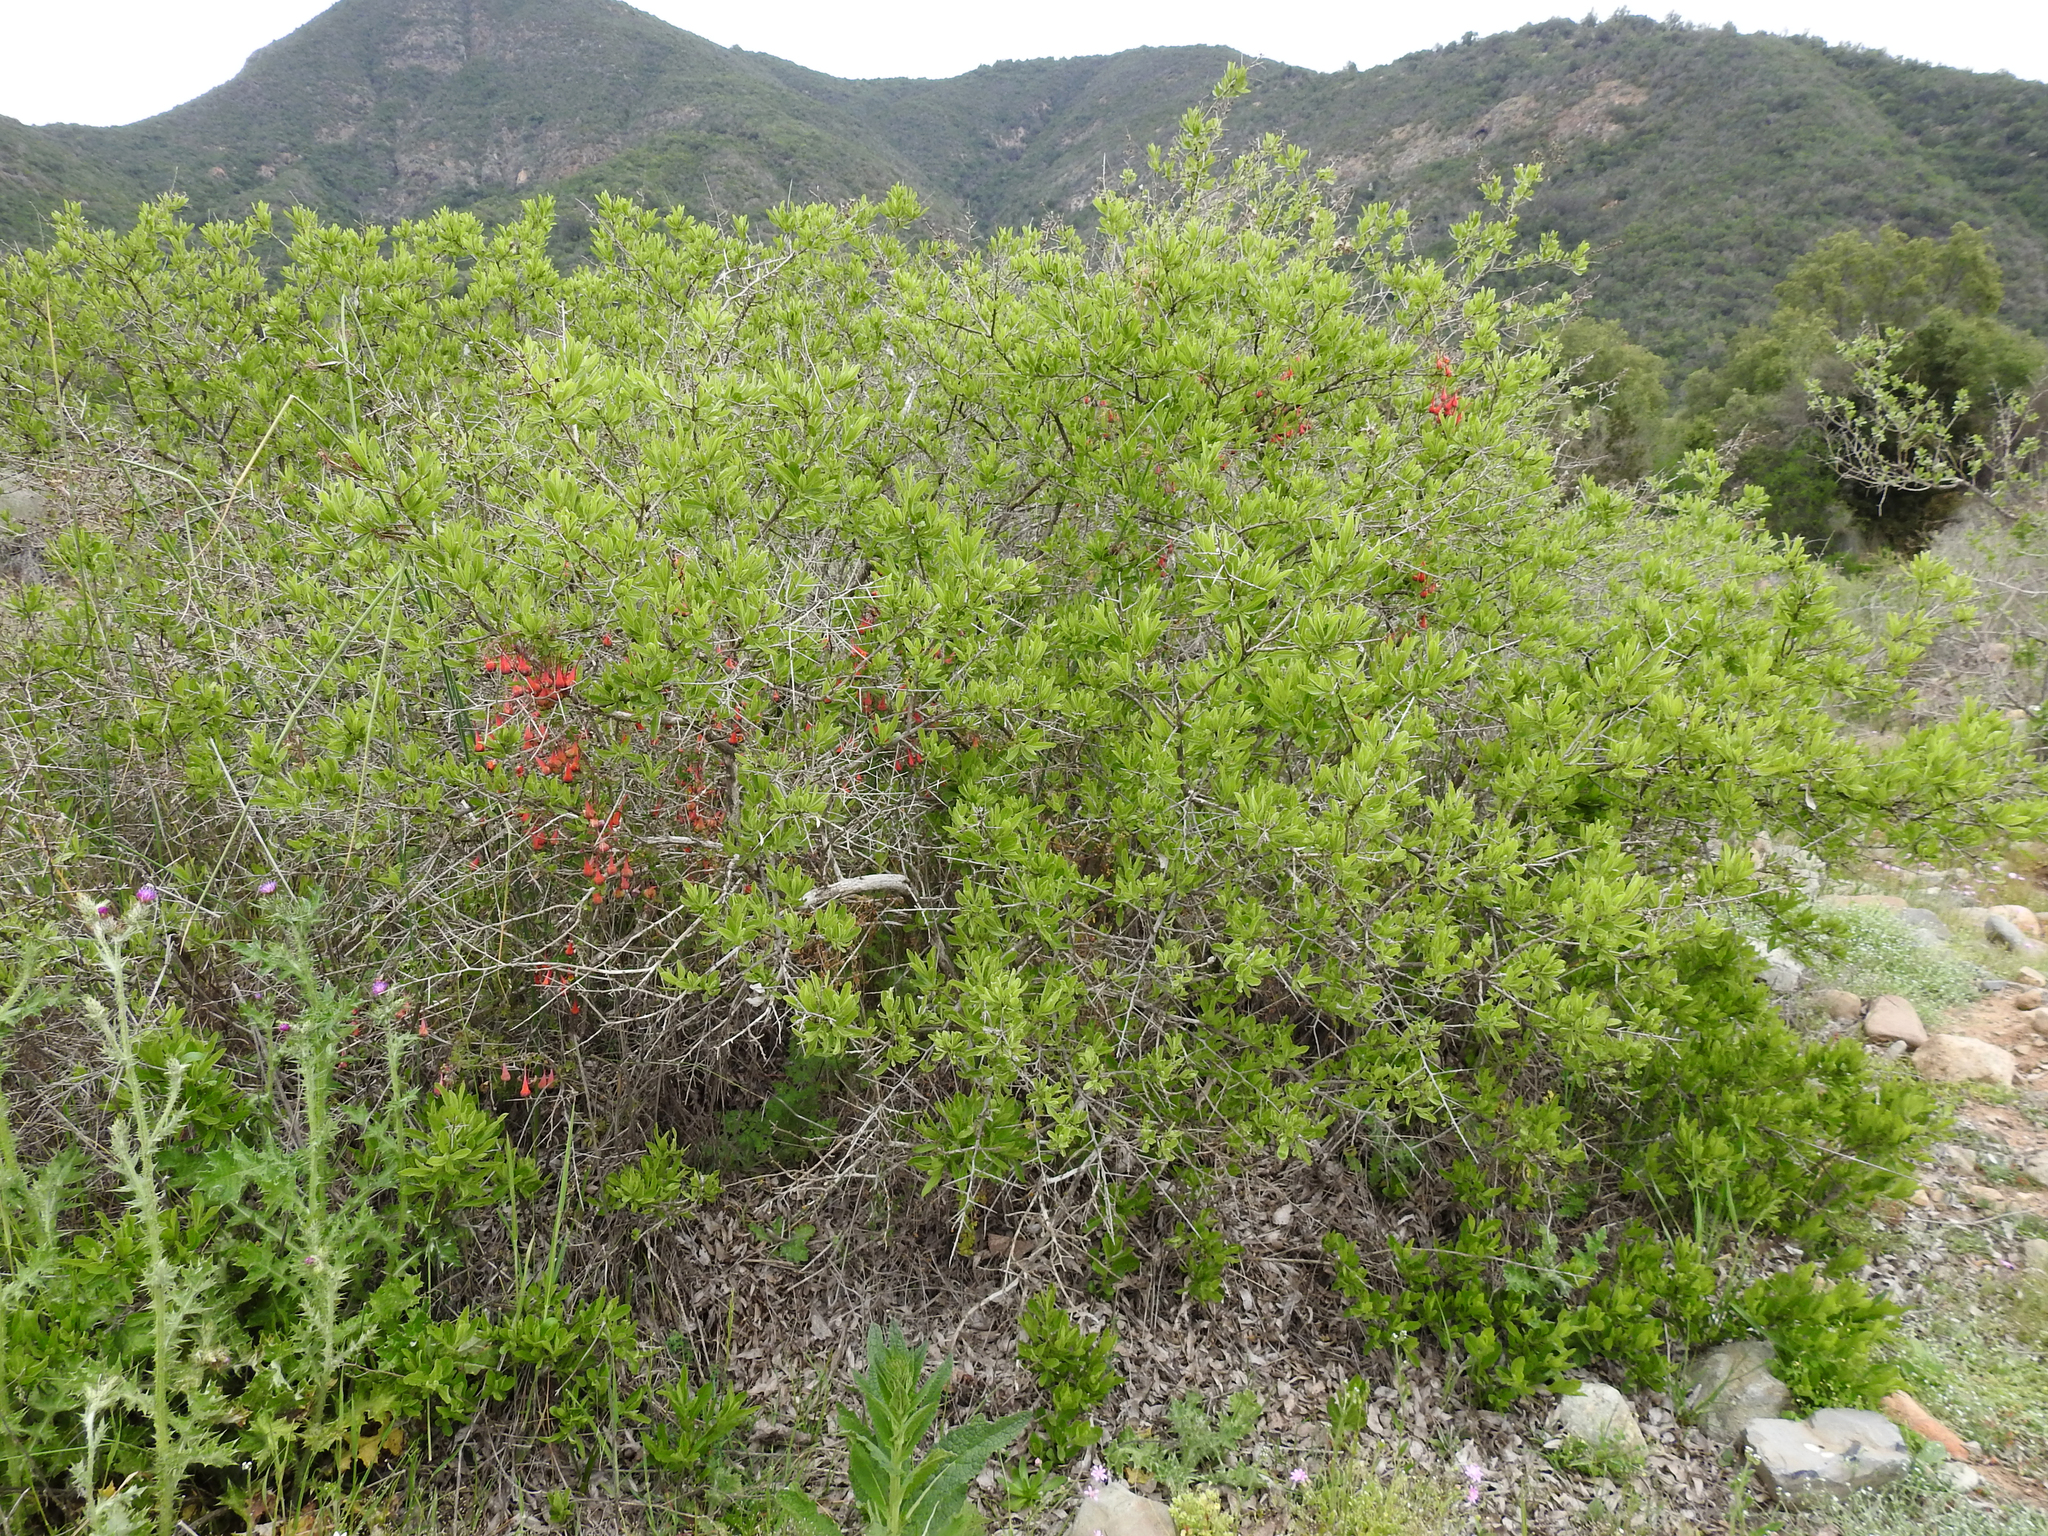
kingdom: Plantae
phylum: Tracheophyta
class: Magnoliopsida
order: Brassicales
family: Tropaeolaceae
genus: Tropaeolum
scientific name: Tropaeolum tricolor
